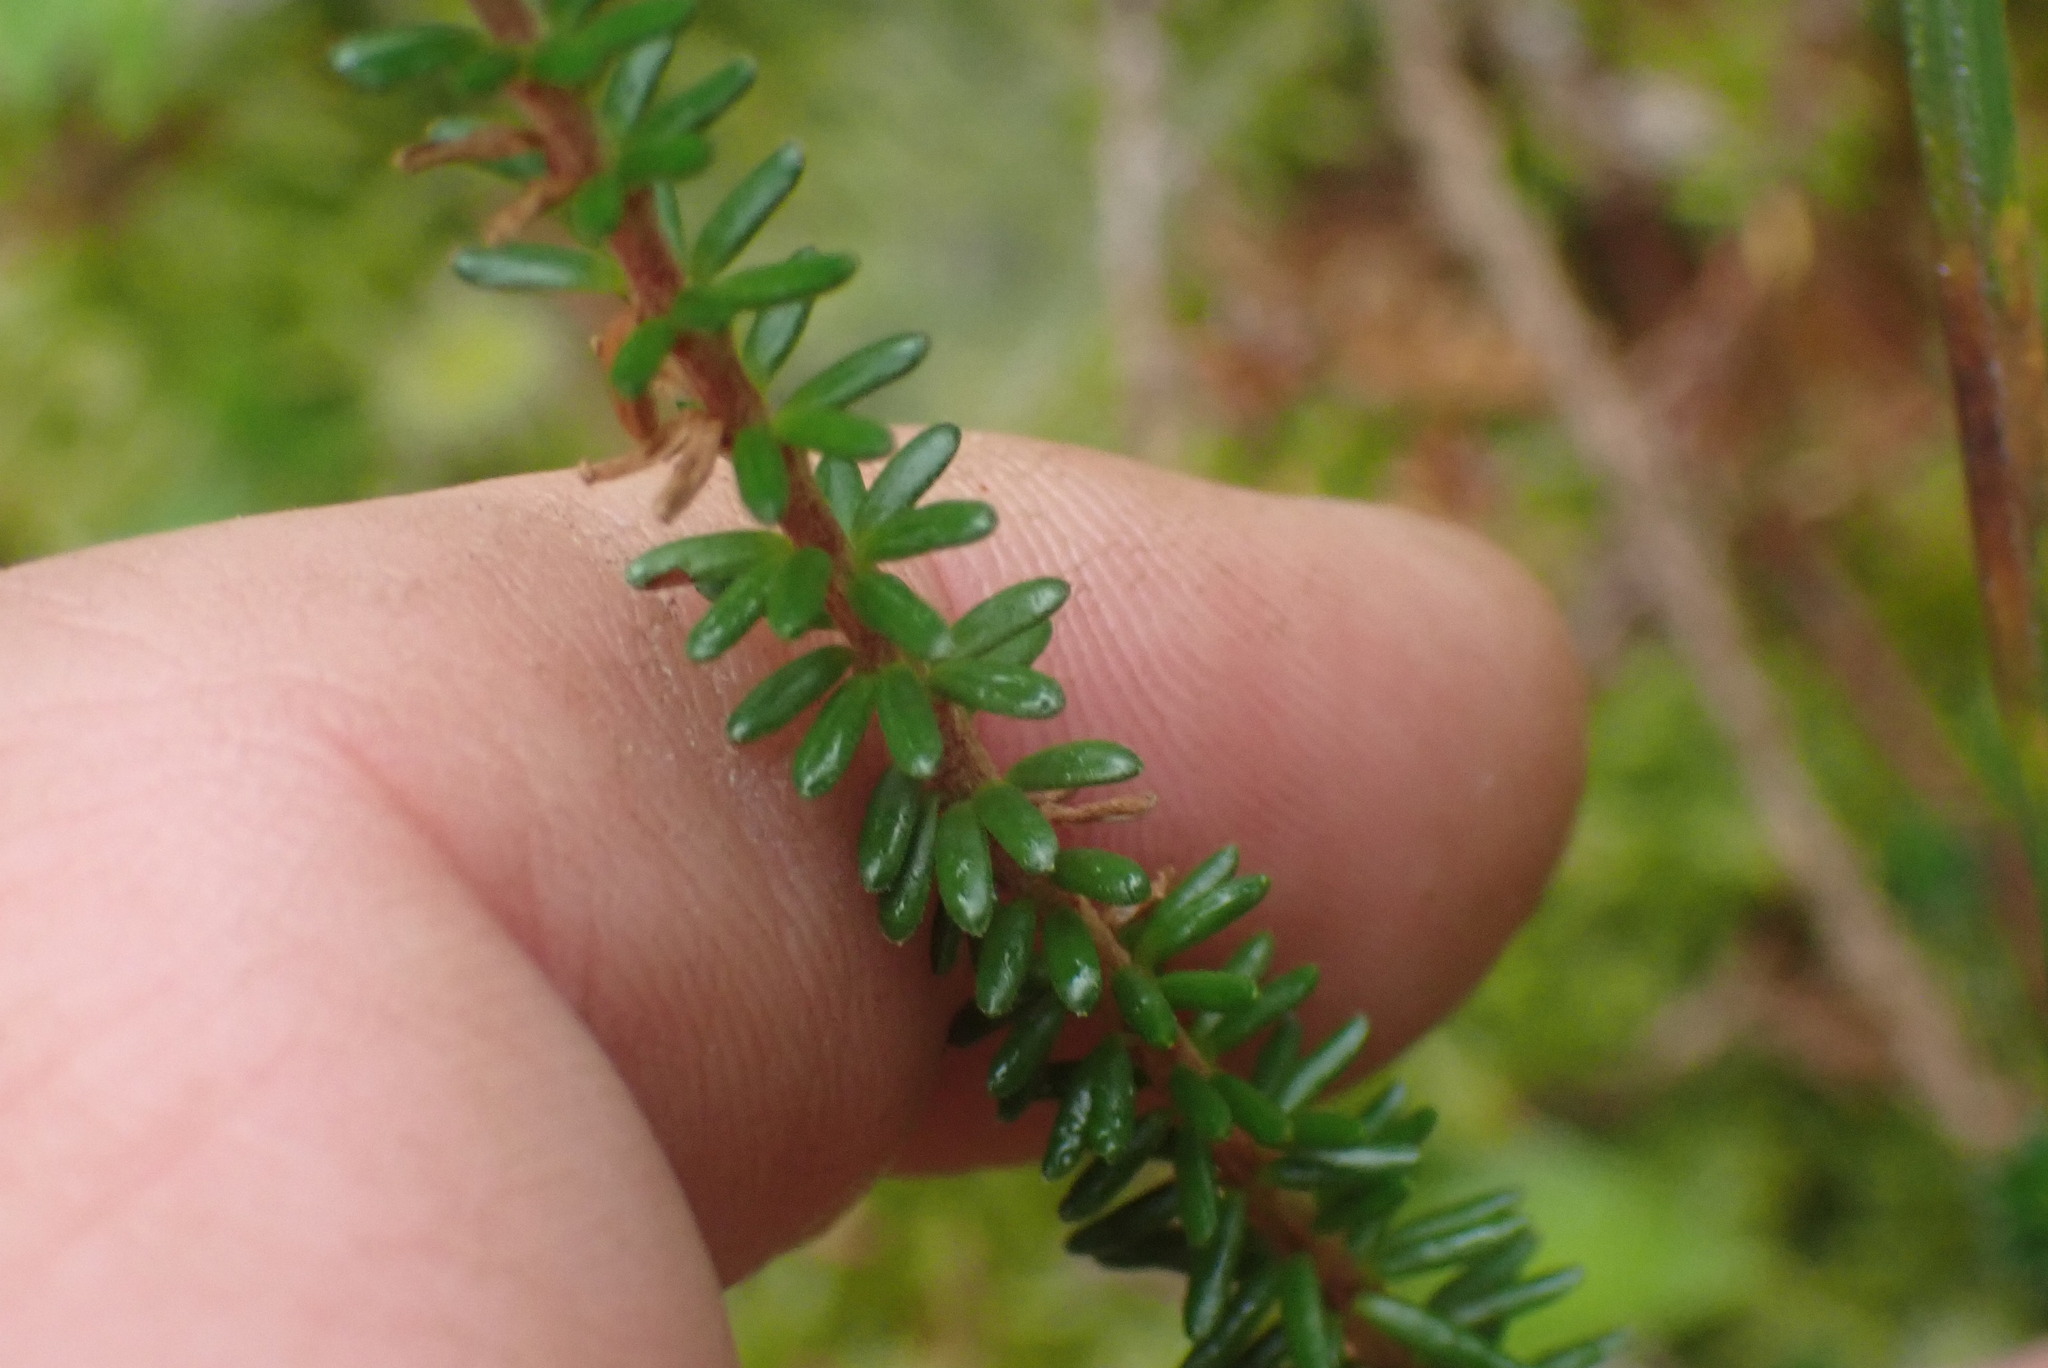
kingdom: Plantae
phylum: Tracheophyta
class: Magnoliopsida
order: Ericales
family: Ericaceae
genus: Empetrum
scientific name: Empetrum nigrum
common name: Black crowberry
